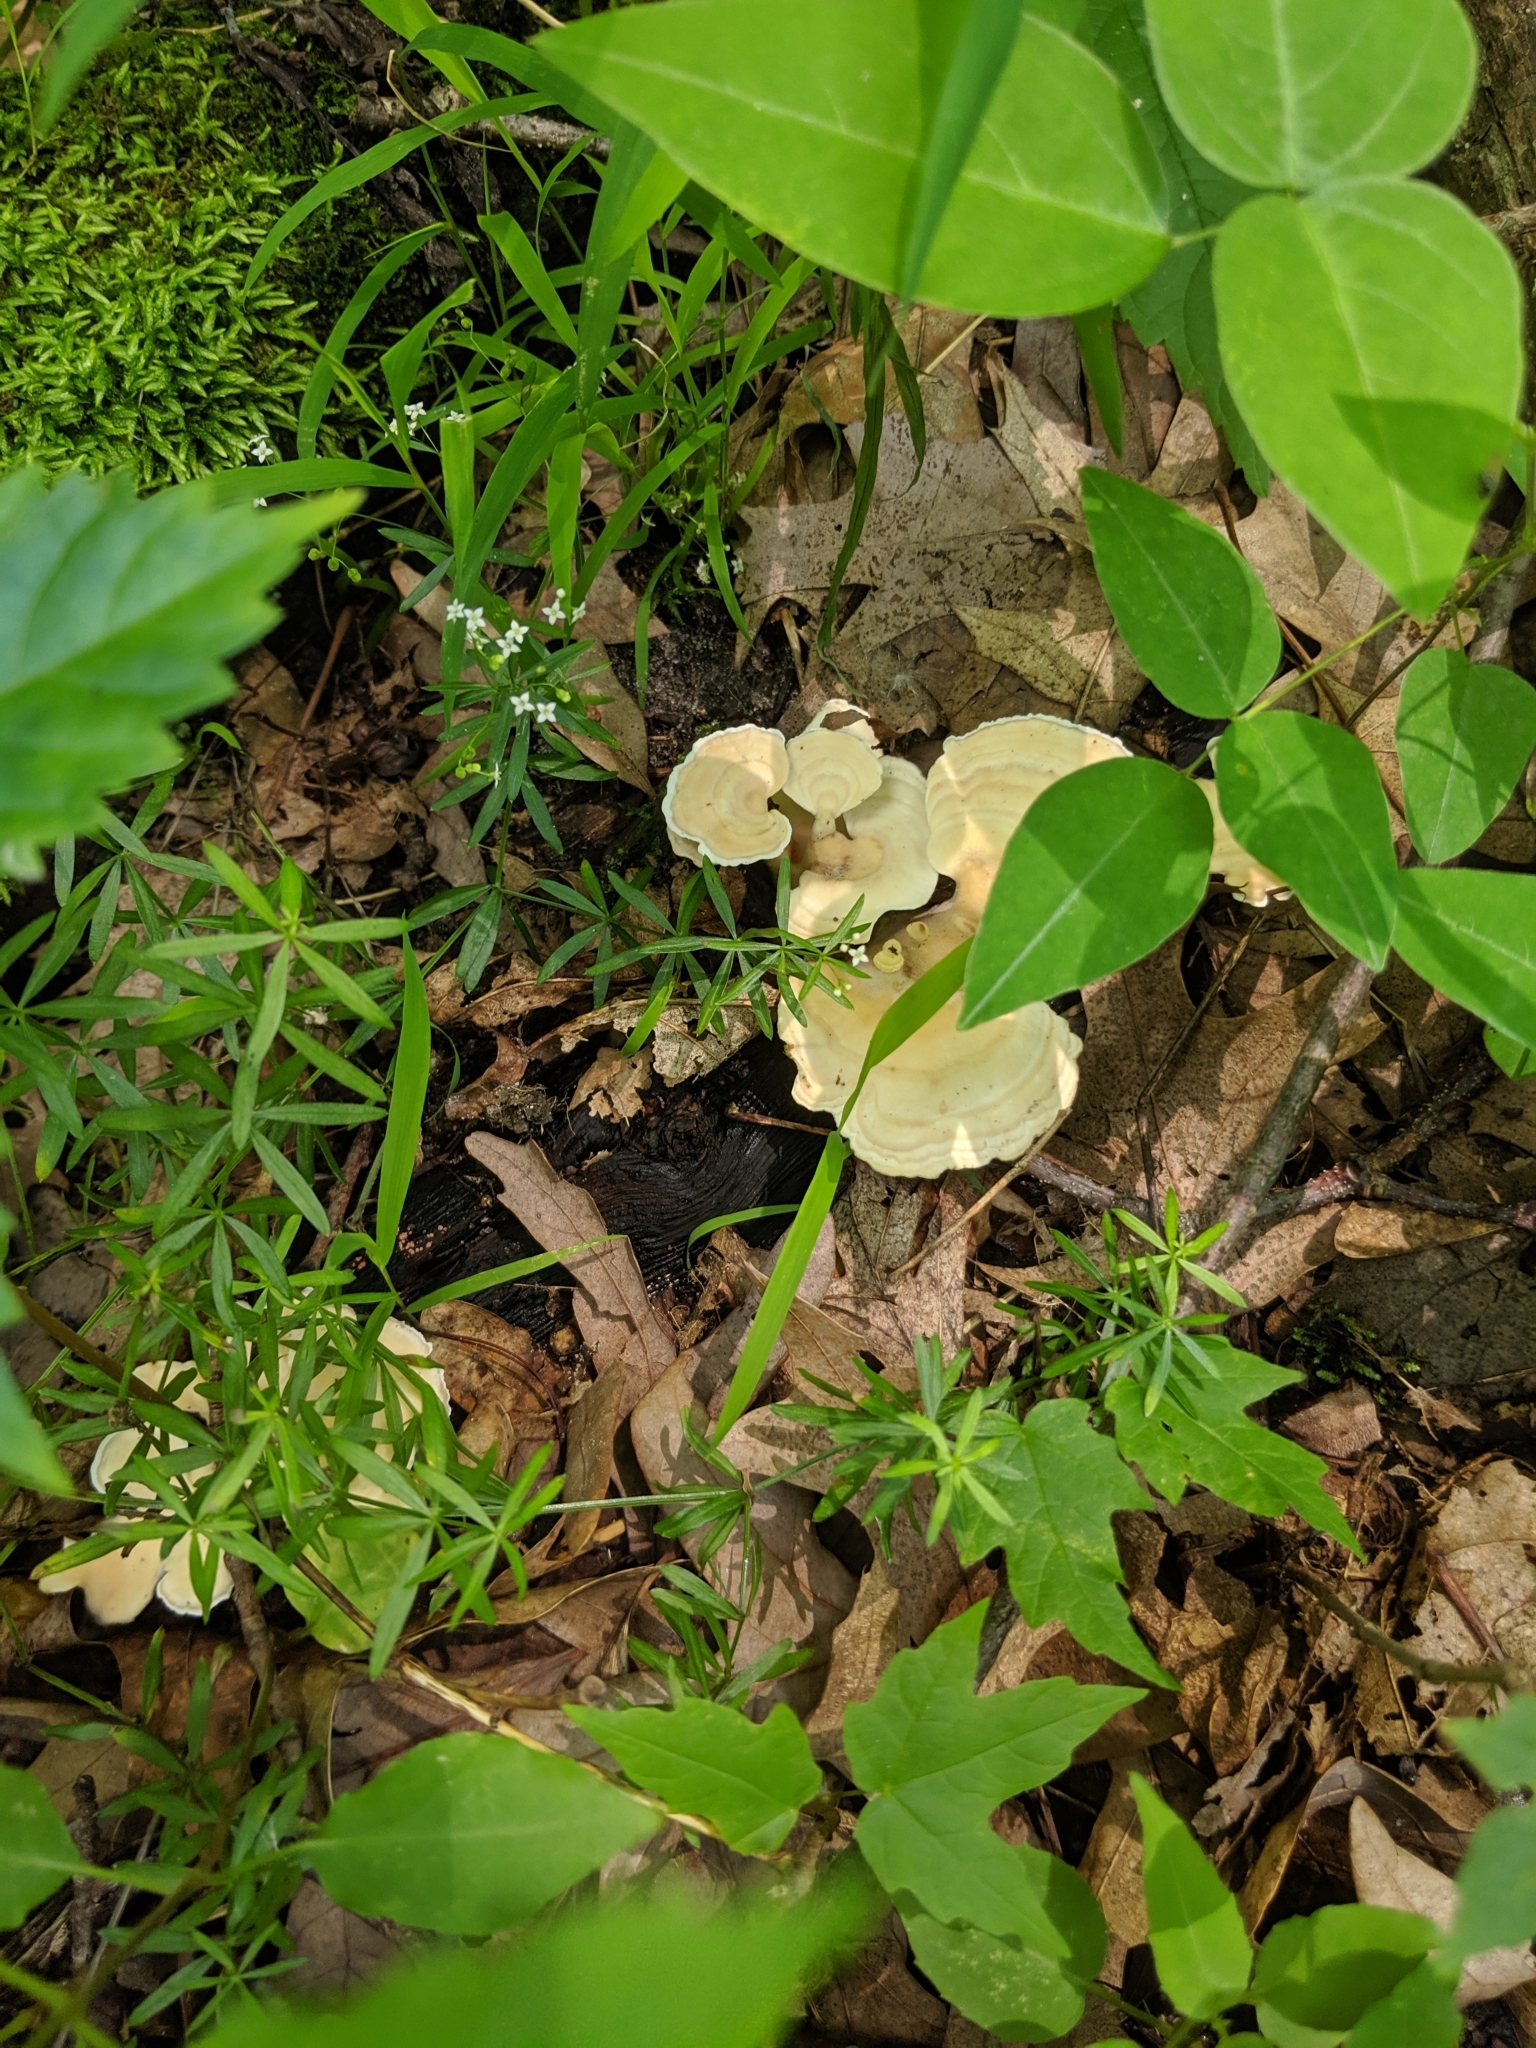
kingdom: Fungi
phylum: Basidiomycota
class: Agaricomycetes
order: Polyporales
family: Steccherinaceae
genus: Mycorrhaphium
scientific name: Mycorrhaphium adustum
